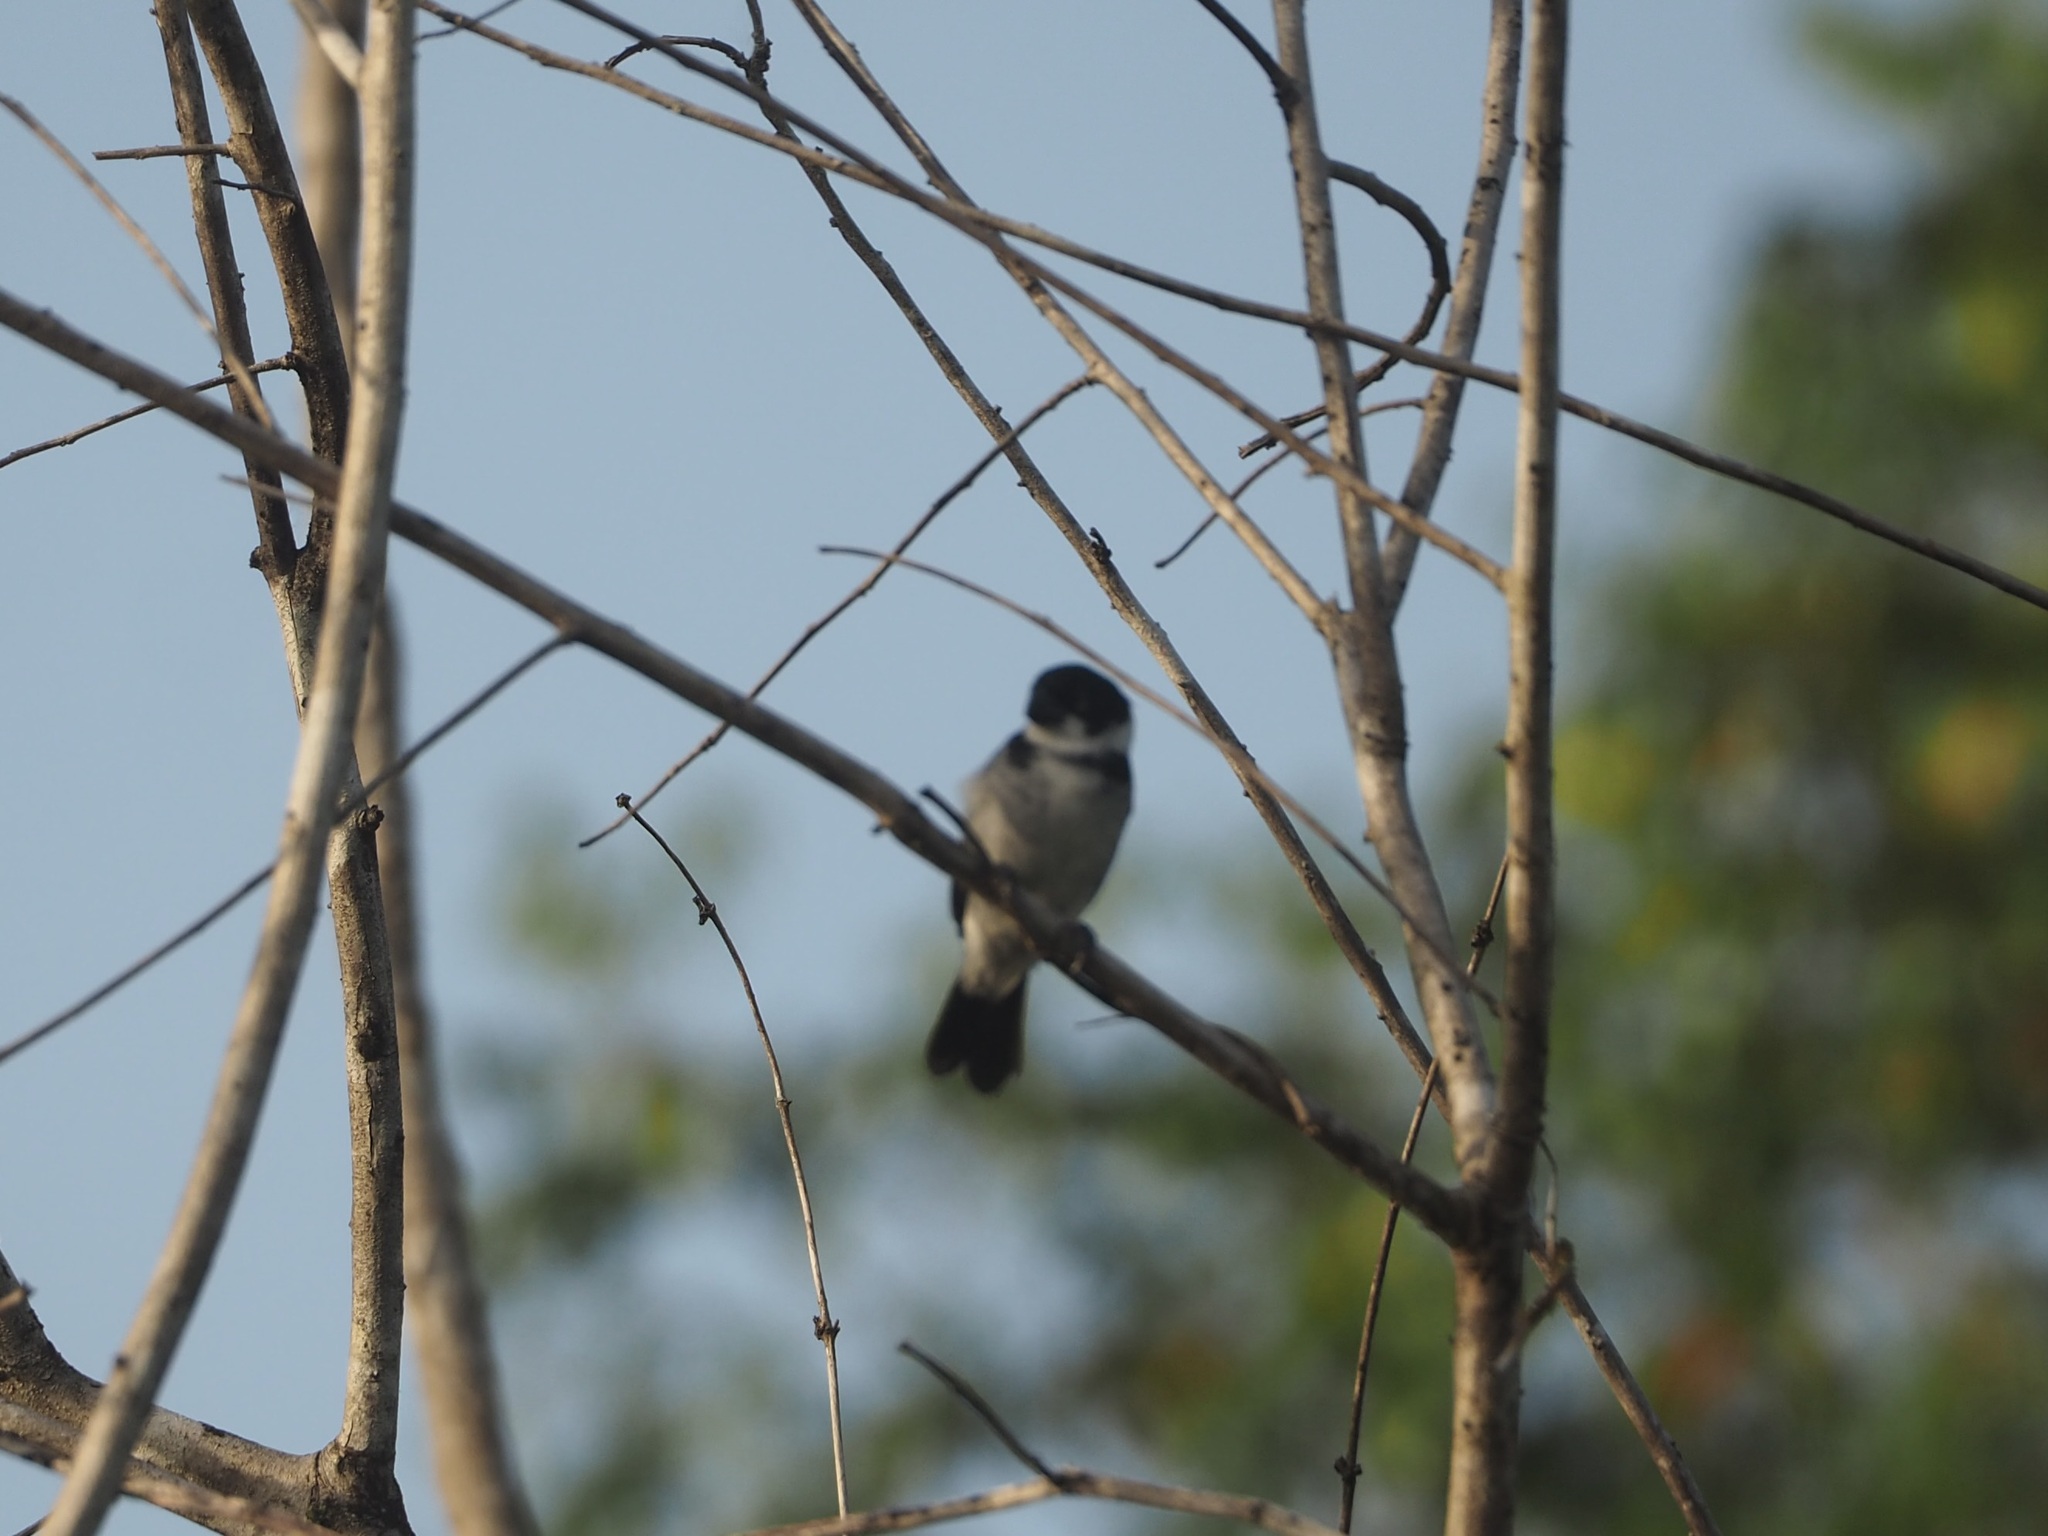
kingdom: Animalia
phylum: Chordata
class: Aves
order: Passeriformes
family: Thraupidae
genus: Sporophila
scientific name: Sporophila americana
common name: Wing-barred seedeater
